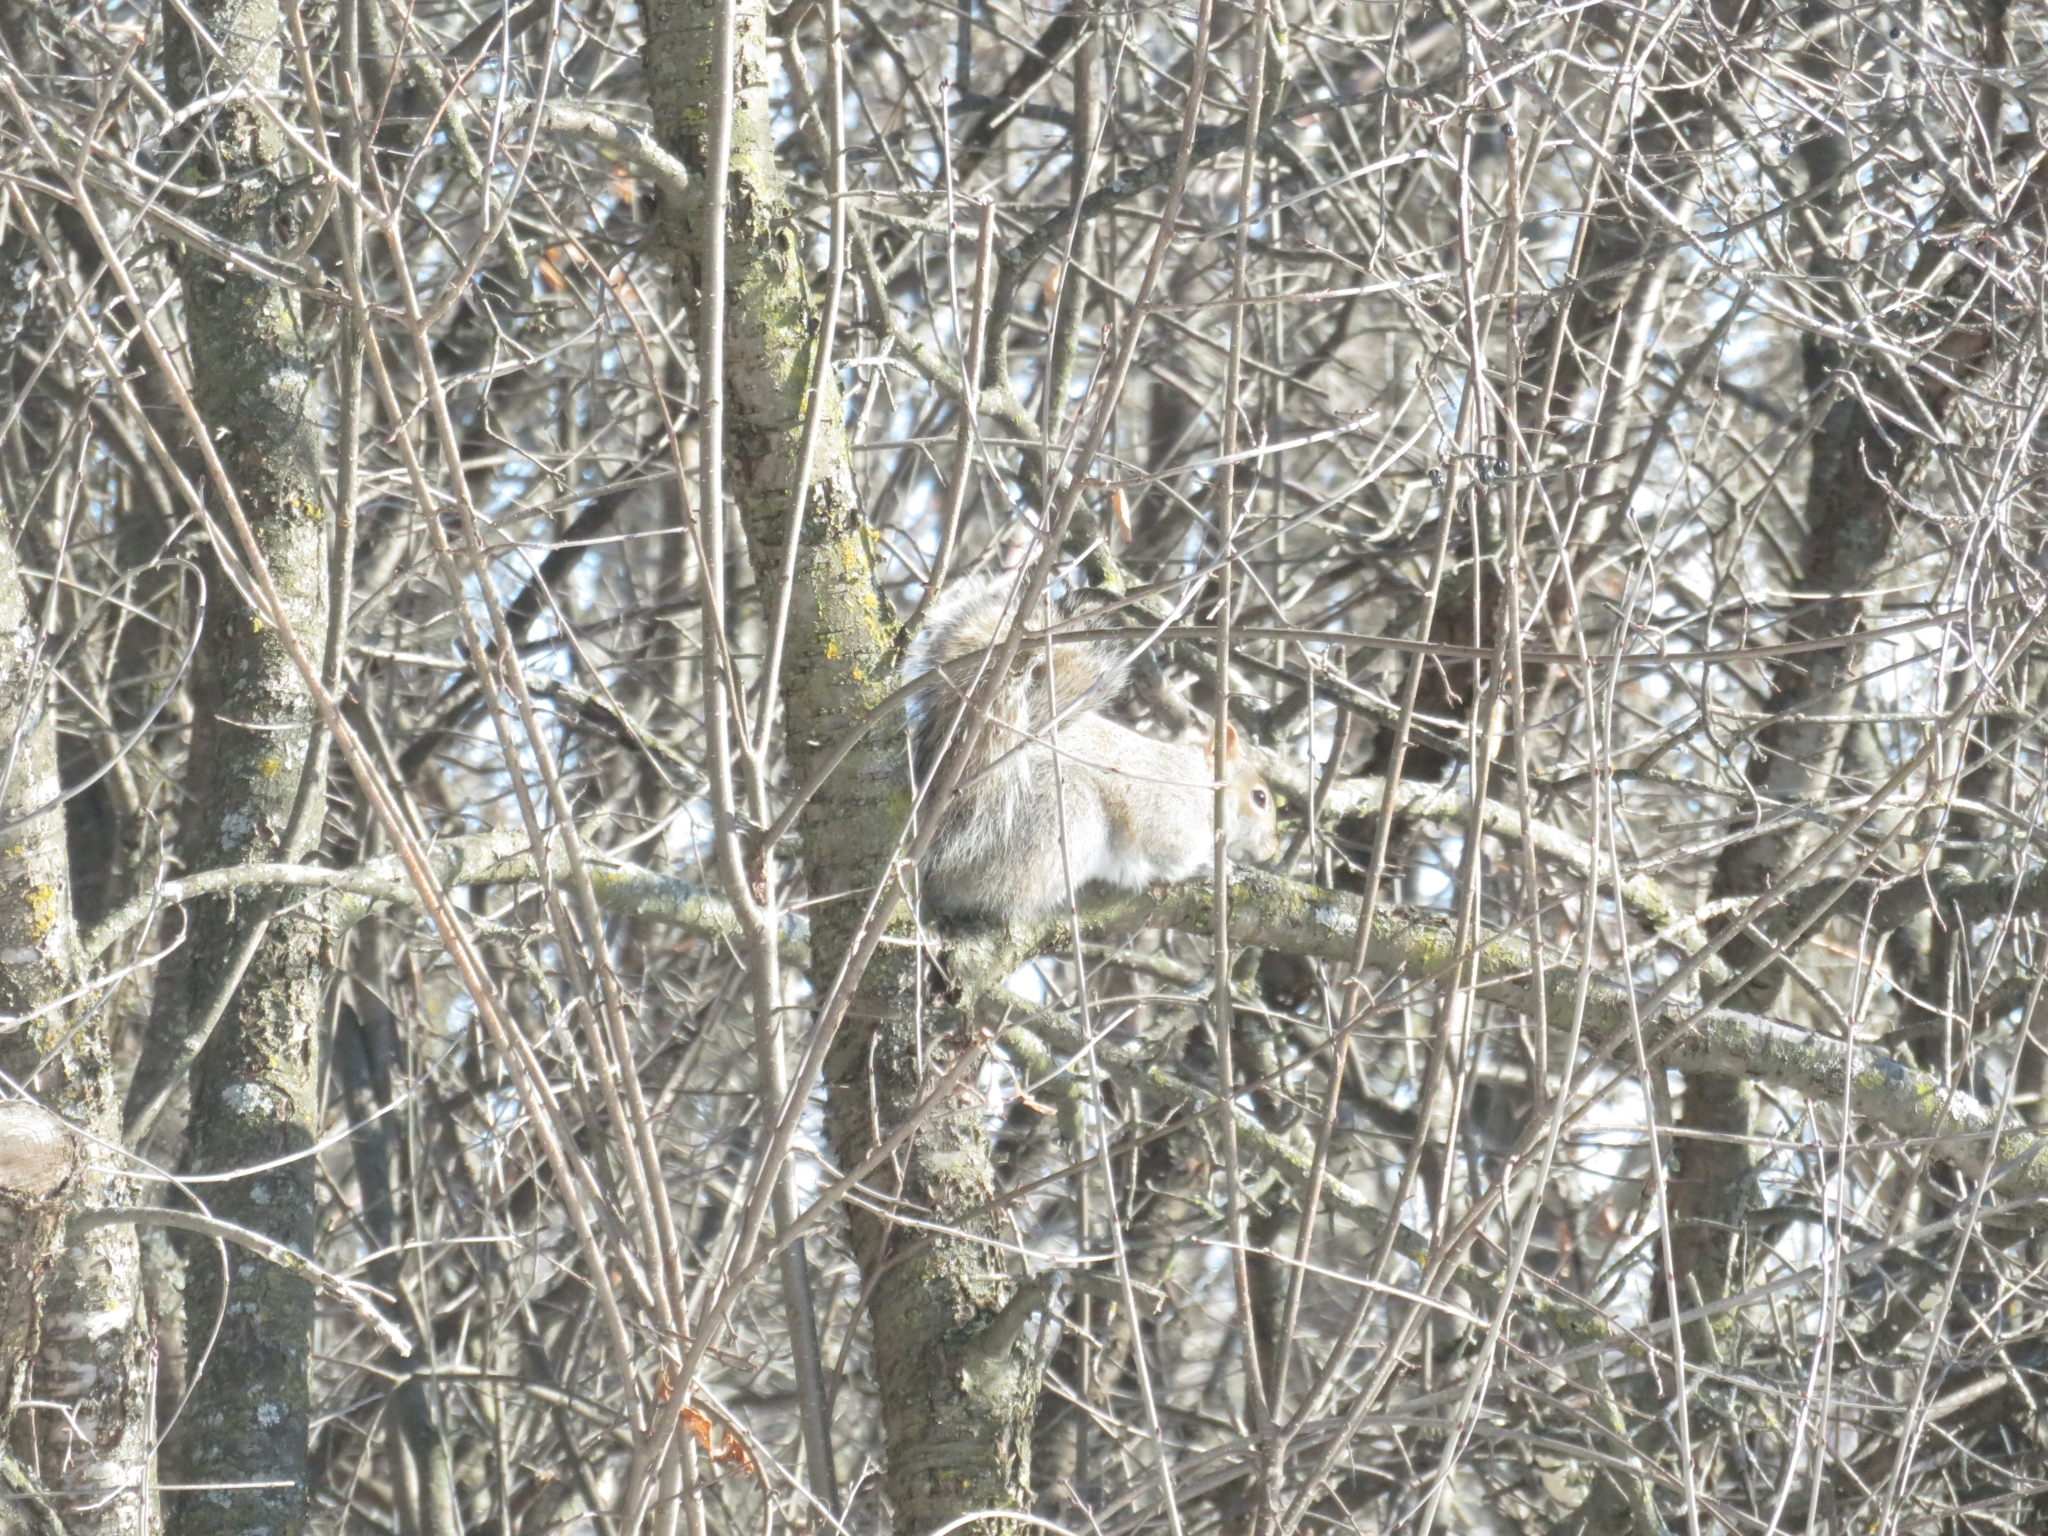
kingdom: Animalia
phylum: Chordata
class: Mammalia
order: Rodentia
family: Sciuridae
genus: Sciurus
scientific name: Sciurus carolinensis
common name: Eastern gray squirrel
